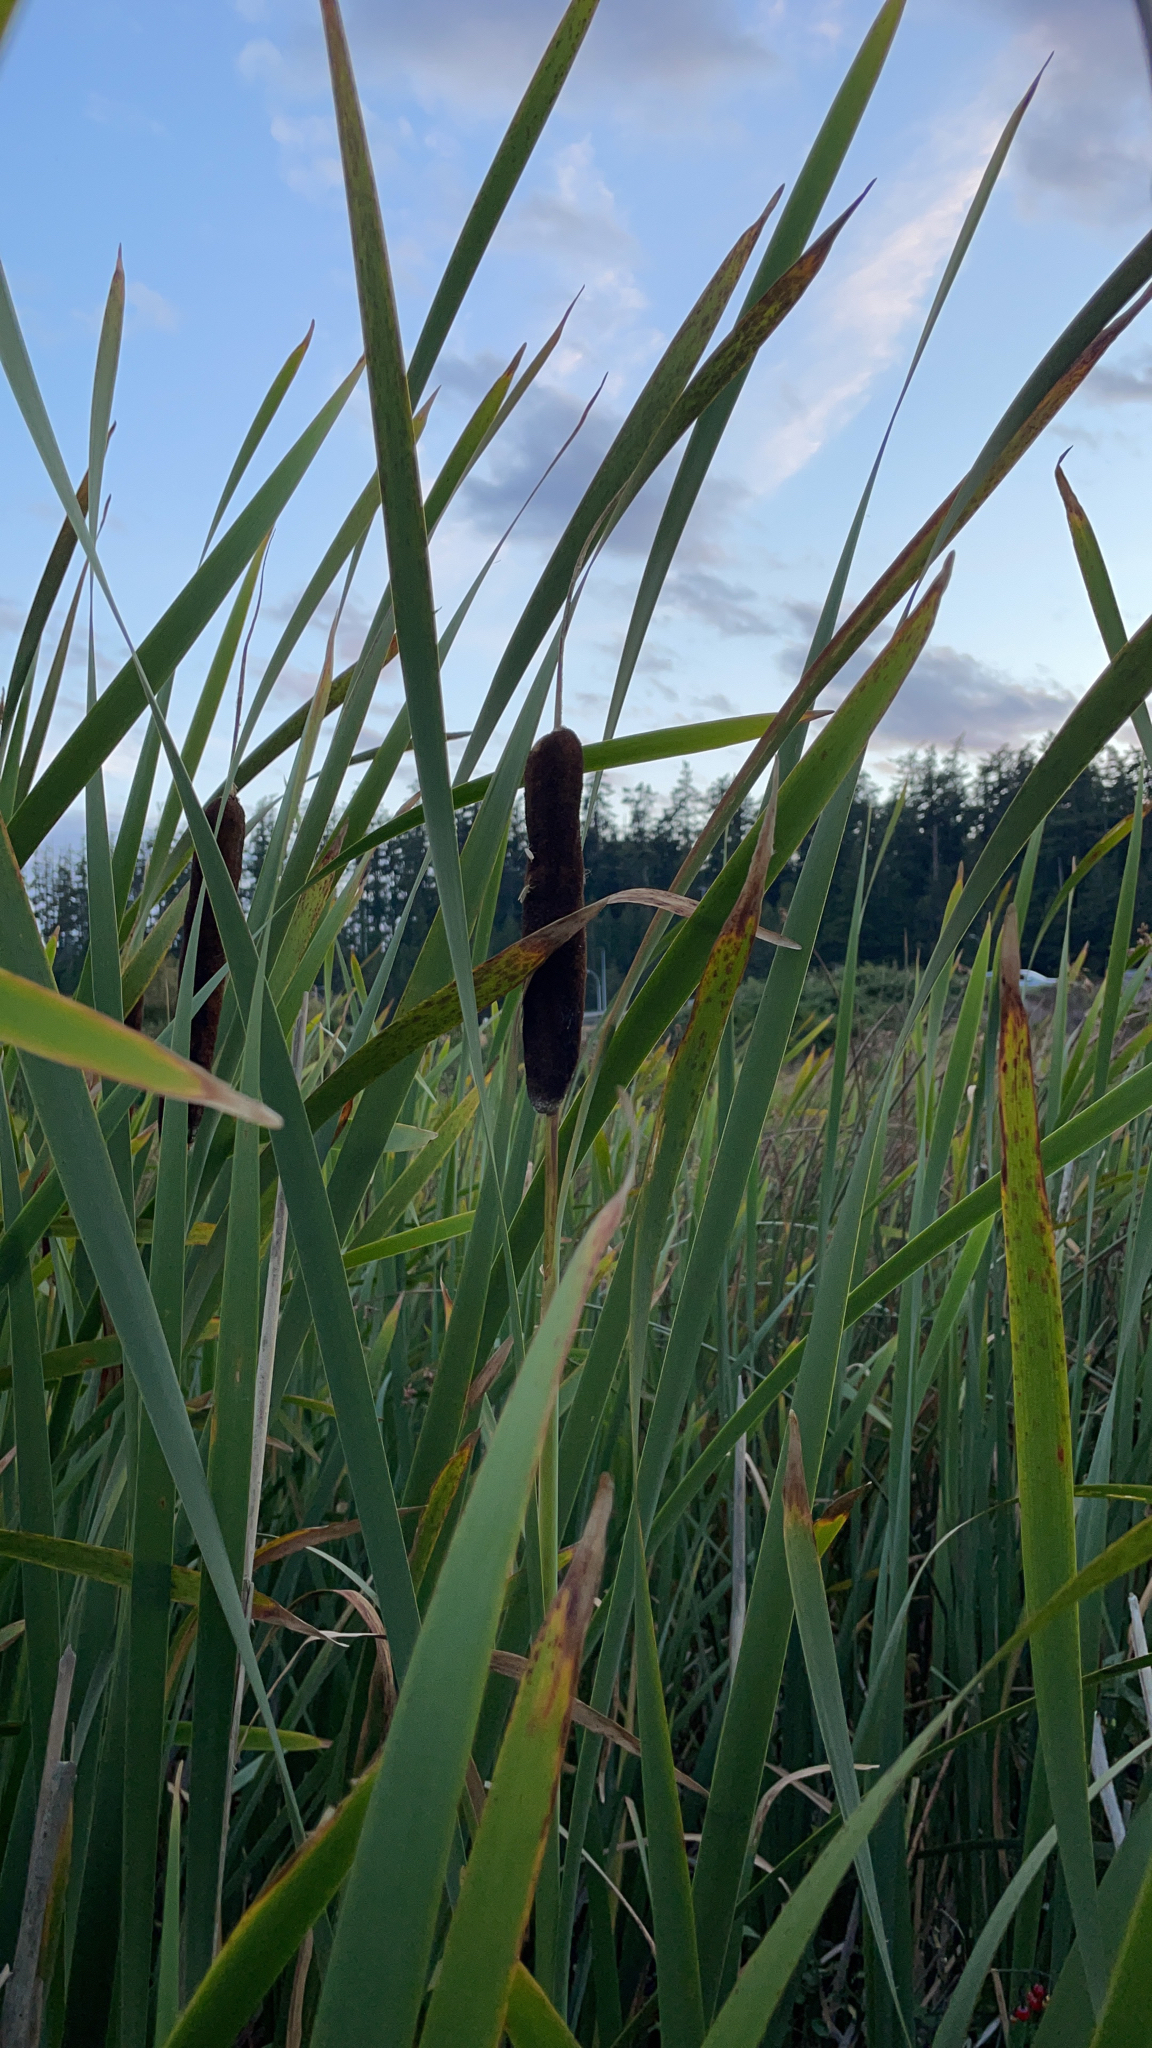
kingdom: Plantae
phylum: Tracheophyta
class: Liliopsida
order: Poales
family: Typhaceae
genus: Typha
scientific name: Typha latifolia
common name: Broadleaf cattail
